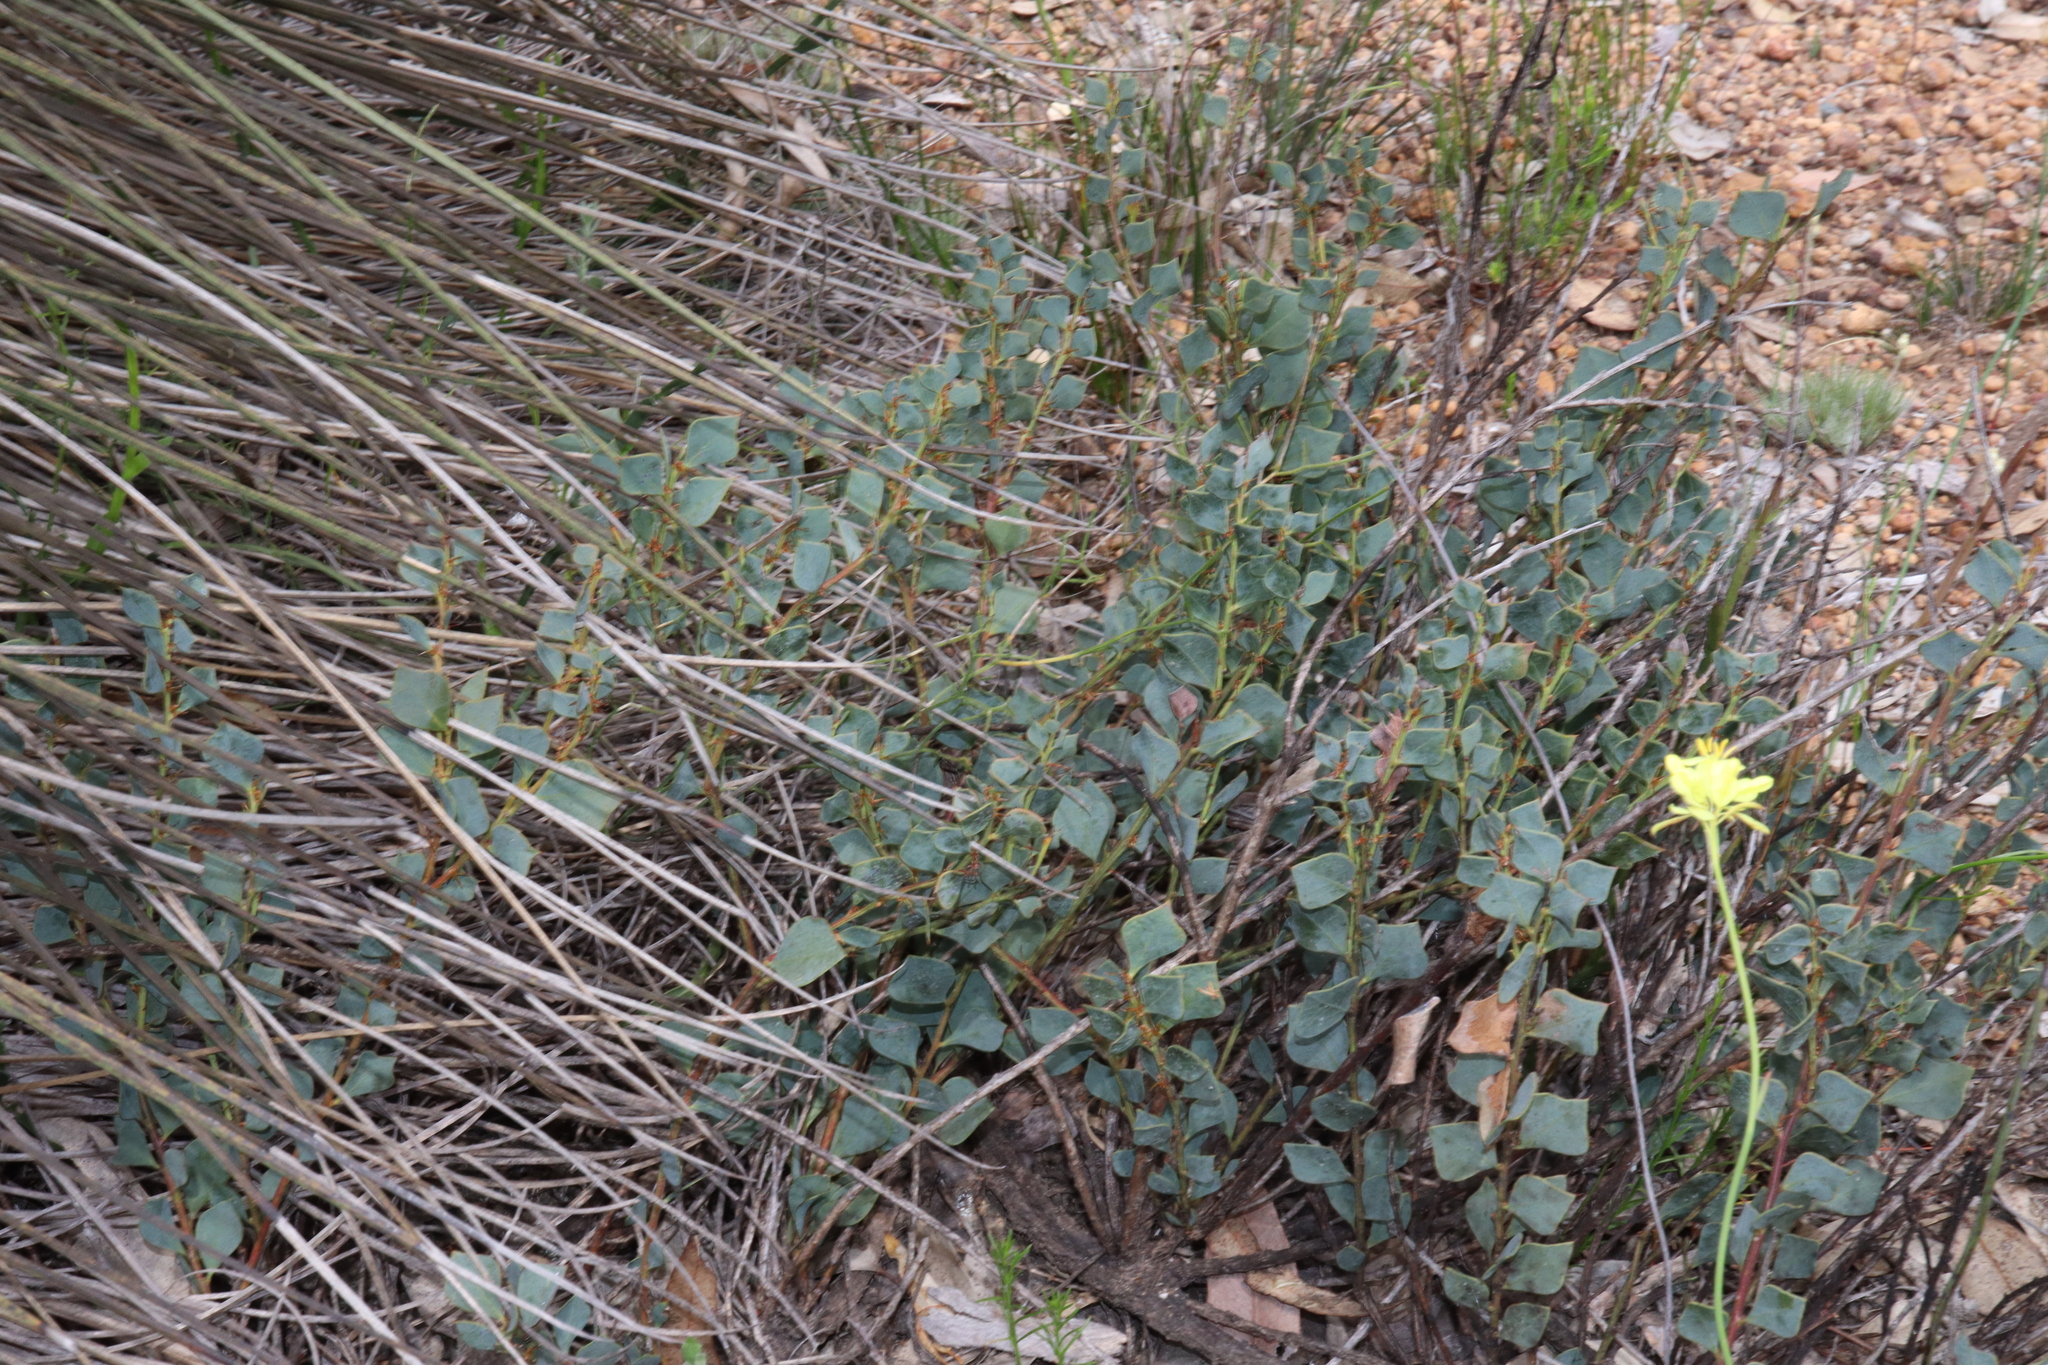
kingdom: Plantae
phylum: Tracheophyta
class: Magnoliopsida
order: Fabales
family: Fabaceae
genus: Daviesia
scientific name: Daviesia rhombifolia
